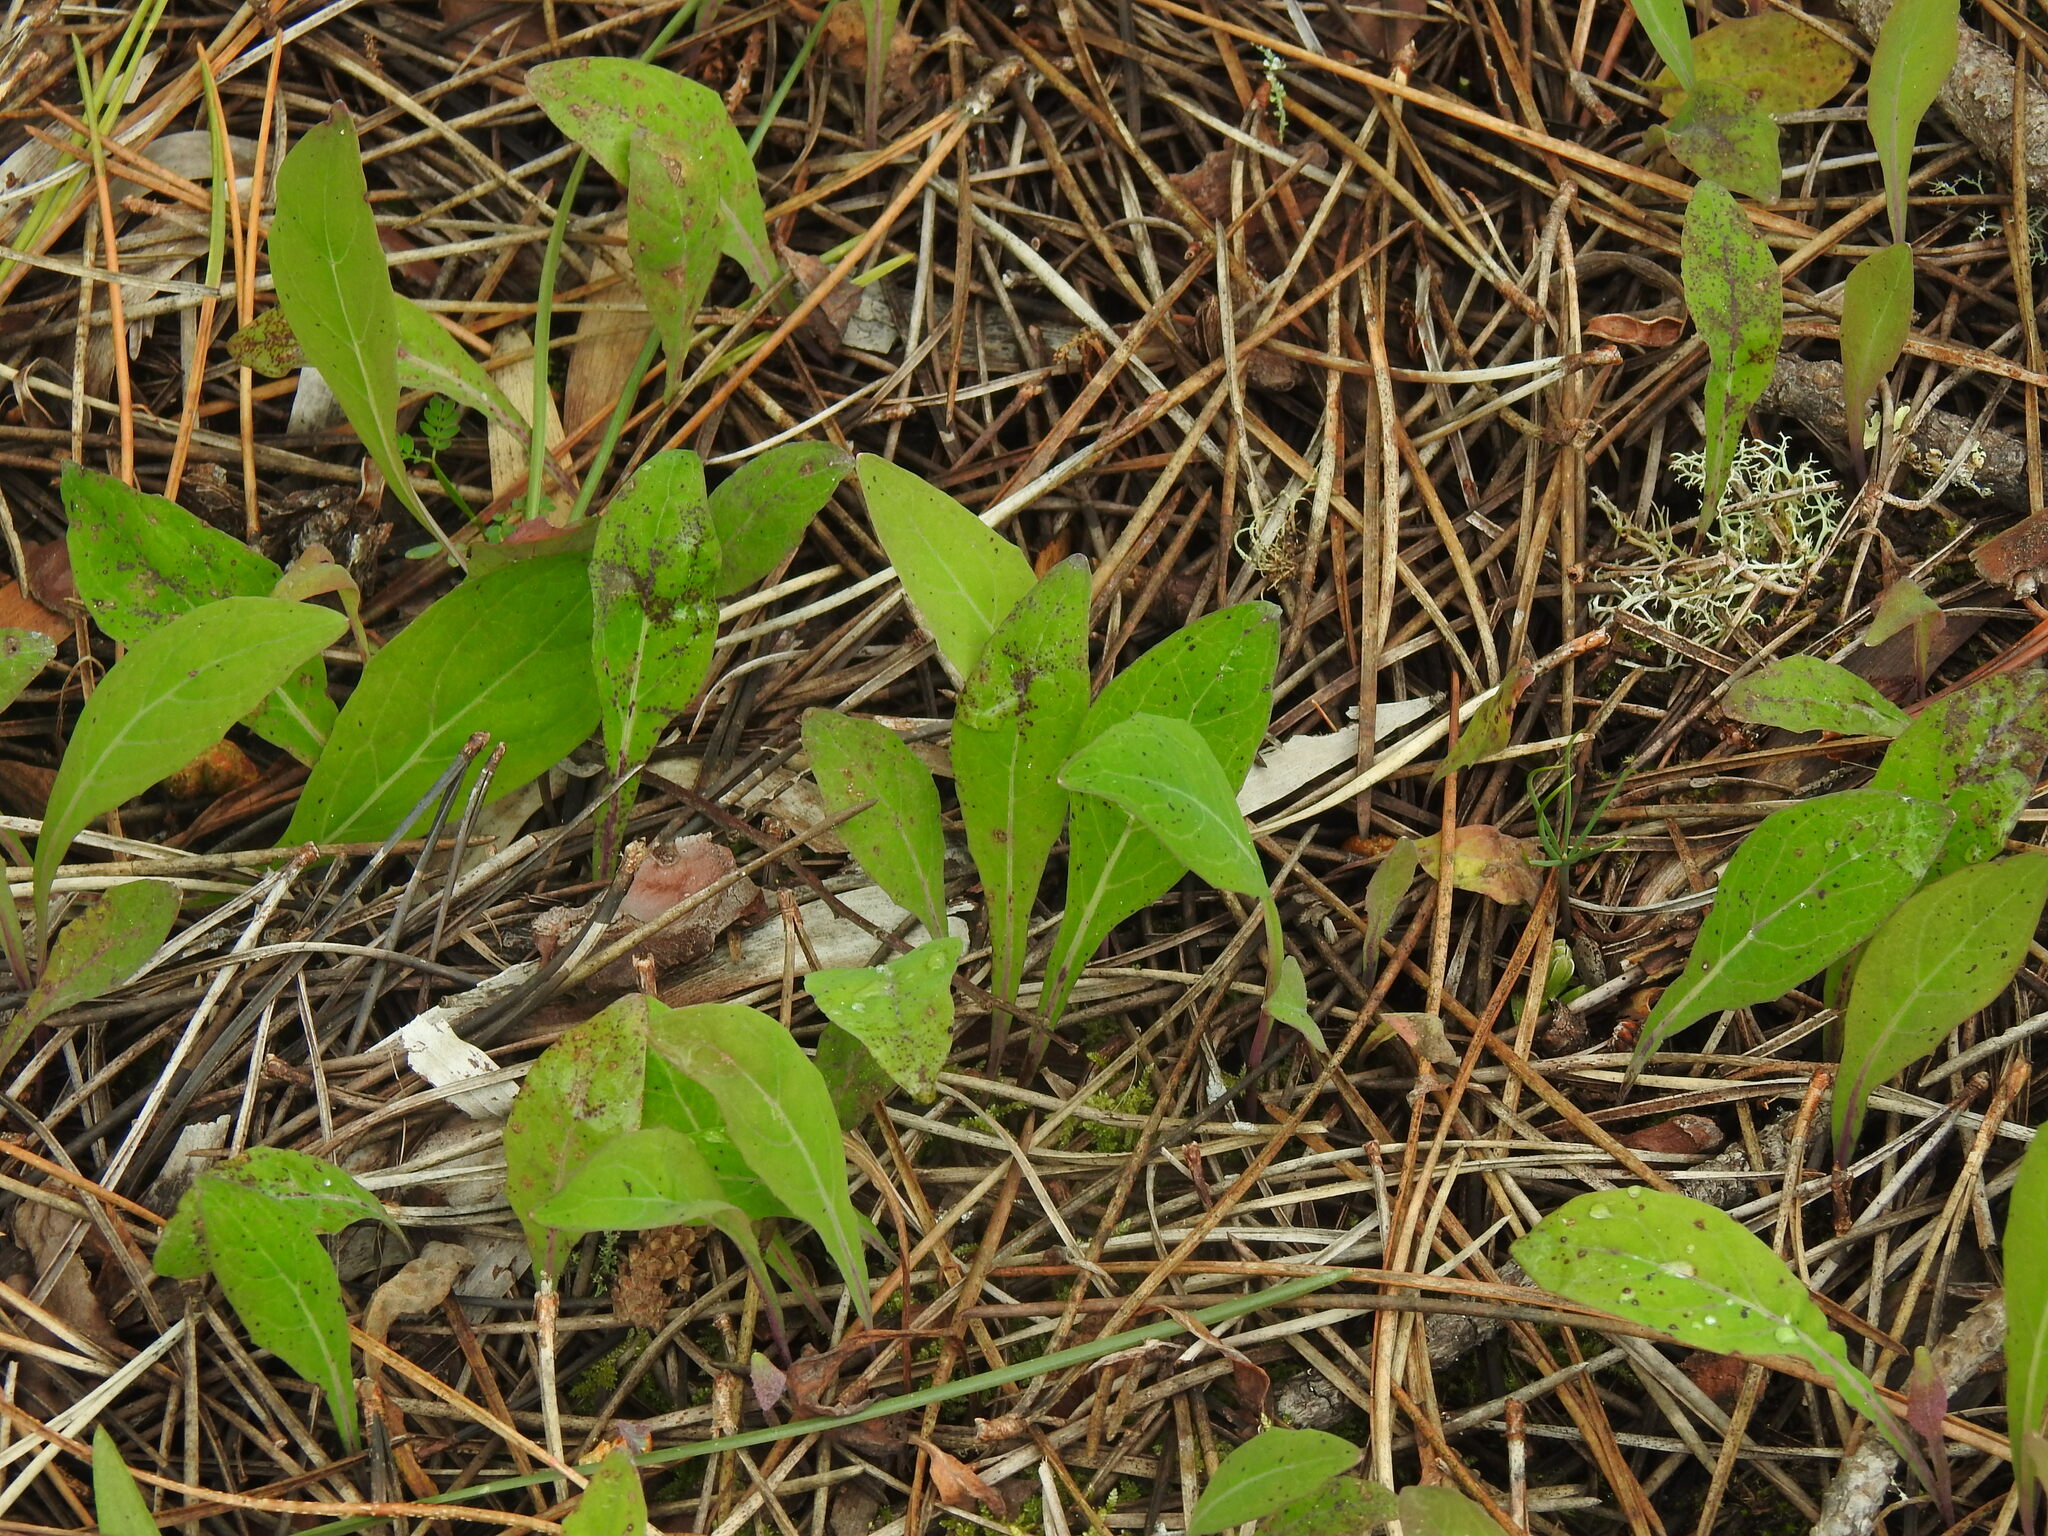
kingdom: Plantae
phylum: Tracheophyta
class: Magnoliopsida
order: Asterales
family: Asteraceae
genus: Aetheorhiza
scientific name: Aetheorhiza bulbosa
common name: Tuberous hawk's-beard
